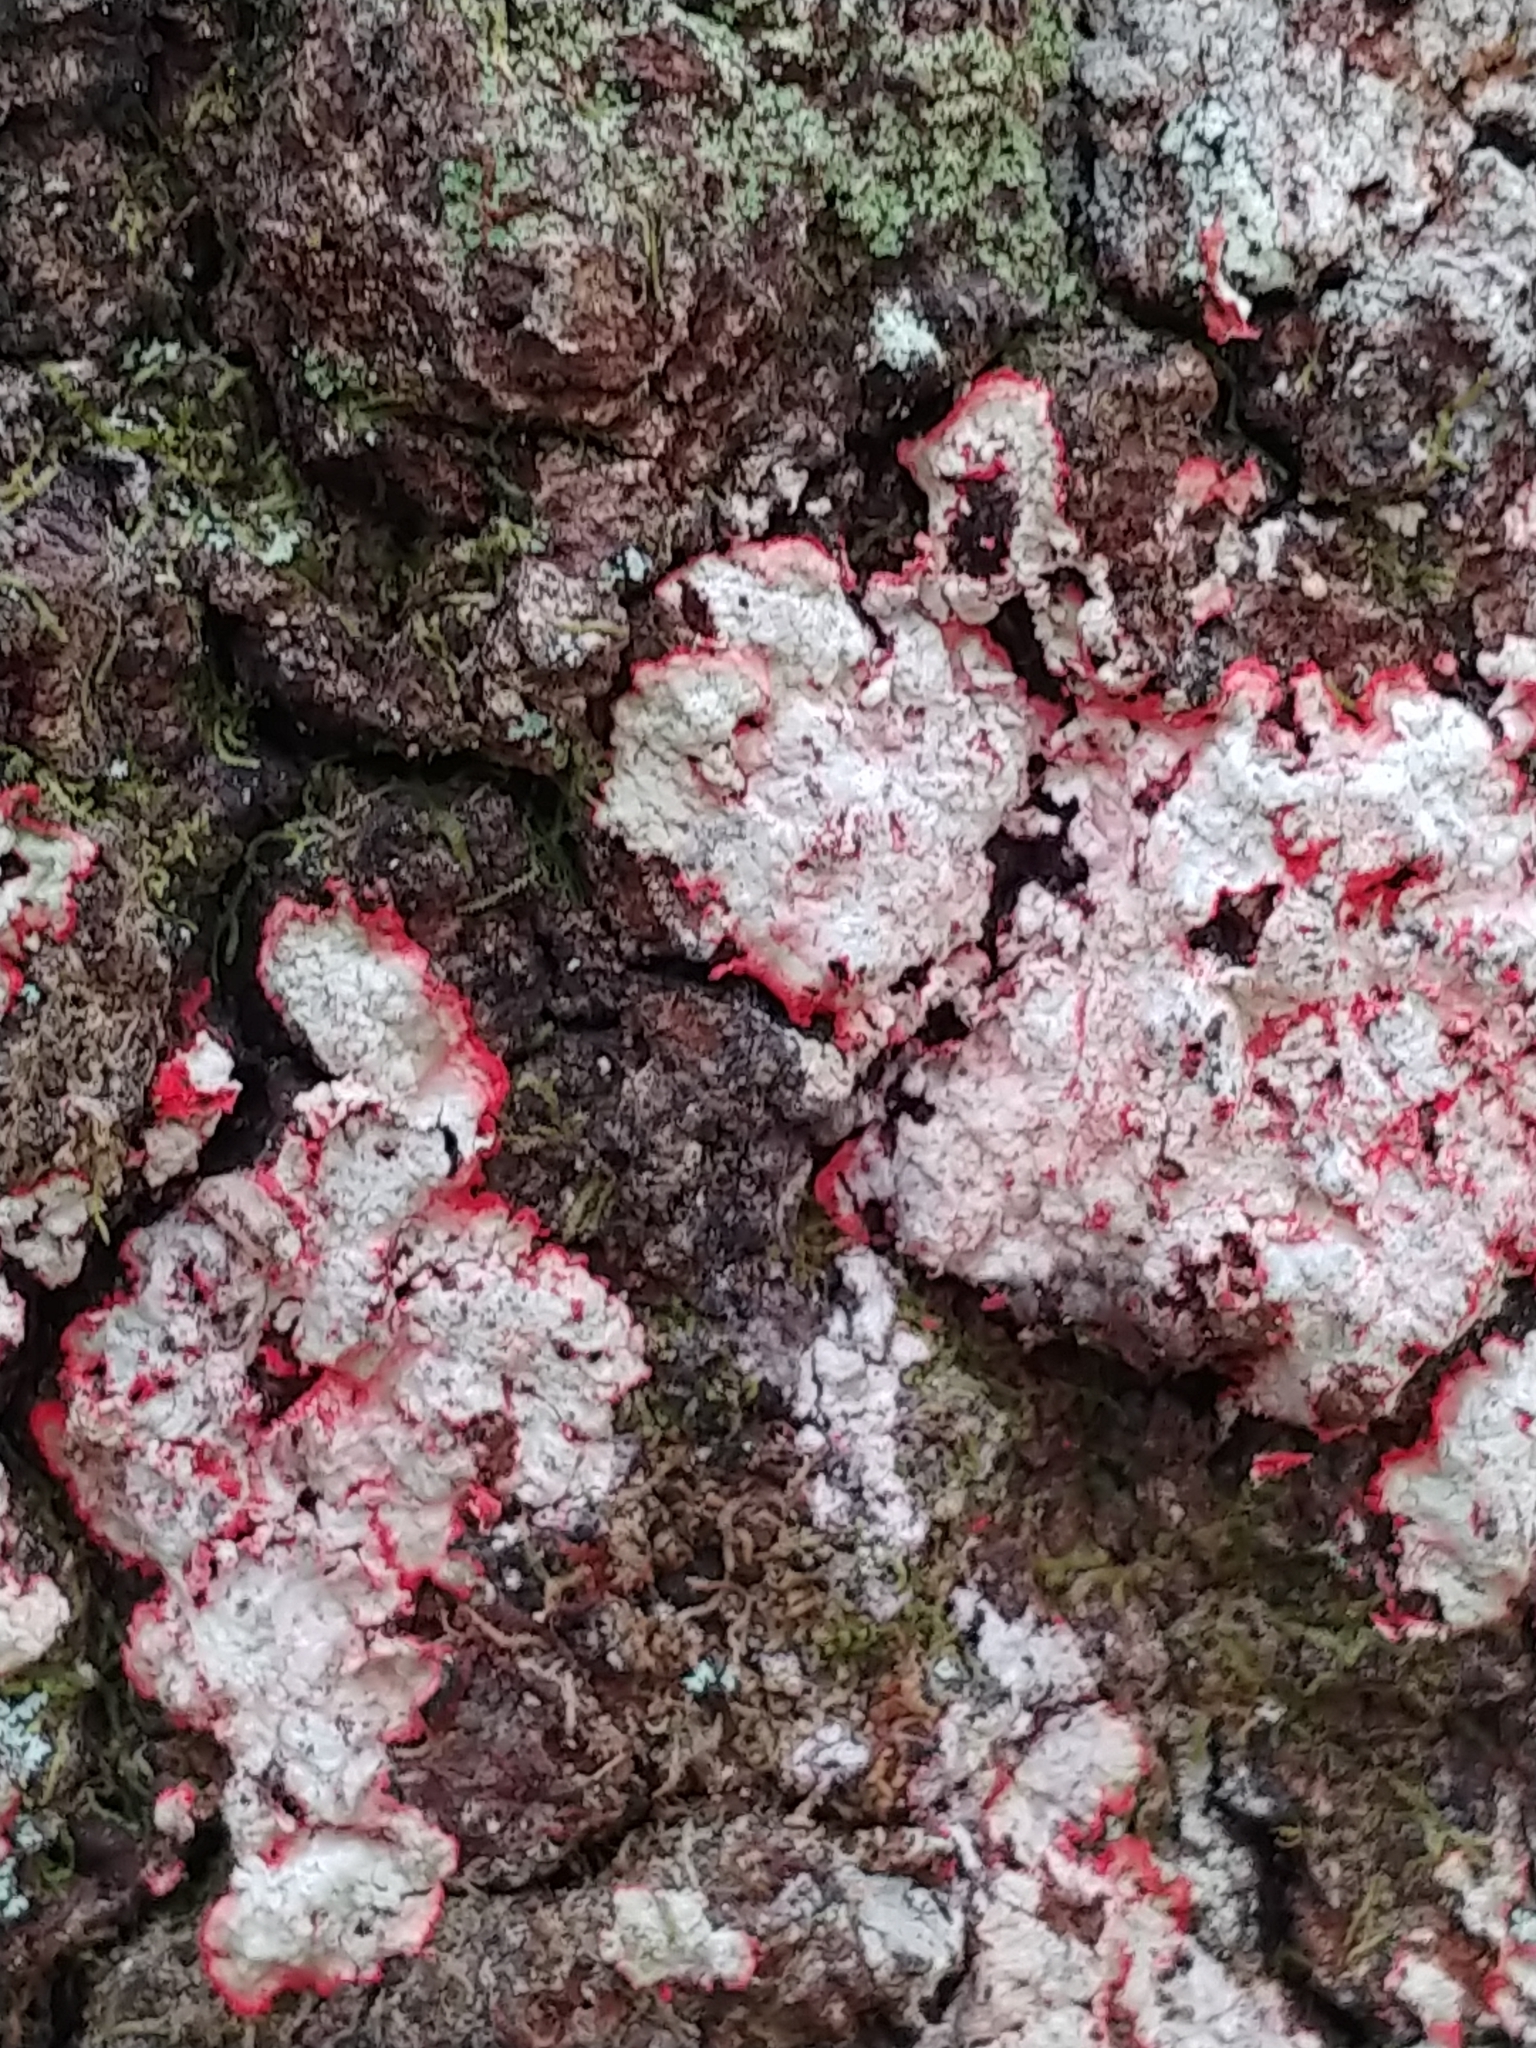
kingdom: Fungi
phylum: Ascomycota
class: Arthoniomycetes
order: Arthoniales
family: Arthoniaceae
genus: Herpothallon
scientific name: Herpothallon rubrocinctum
